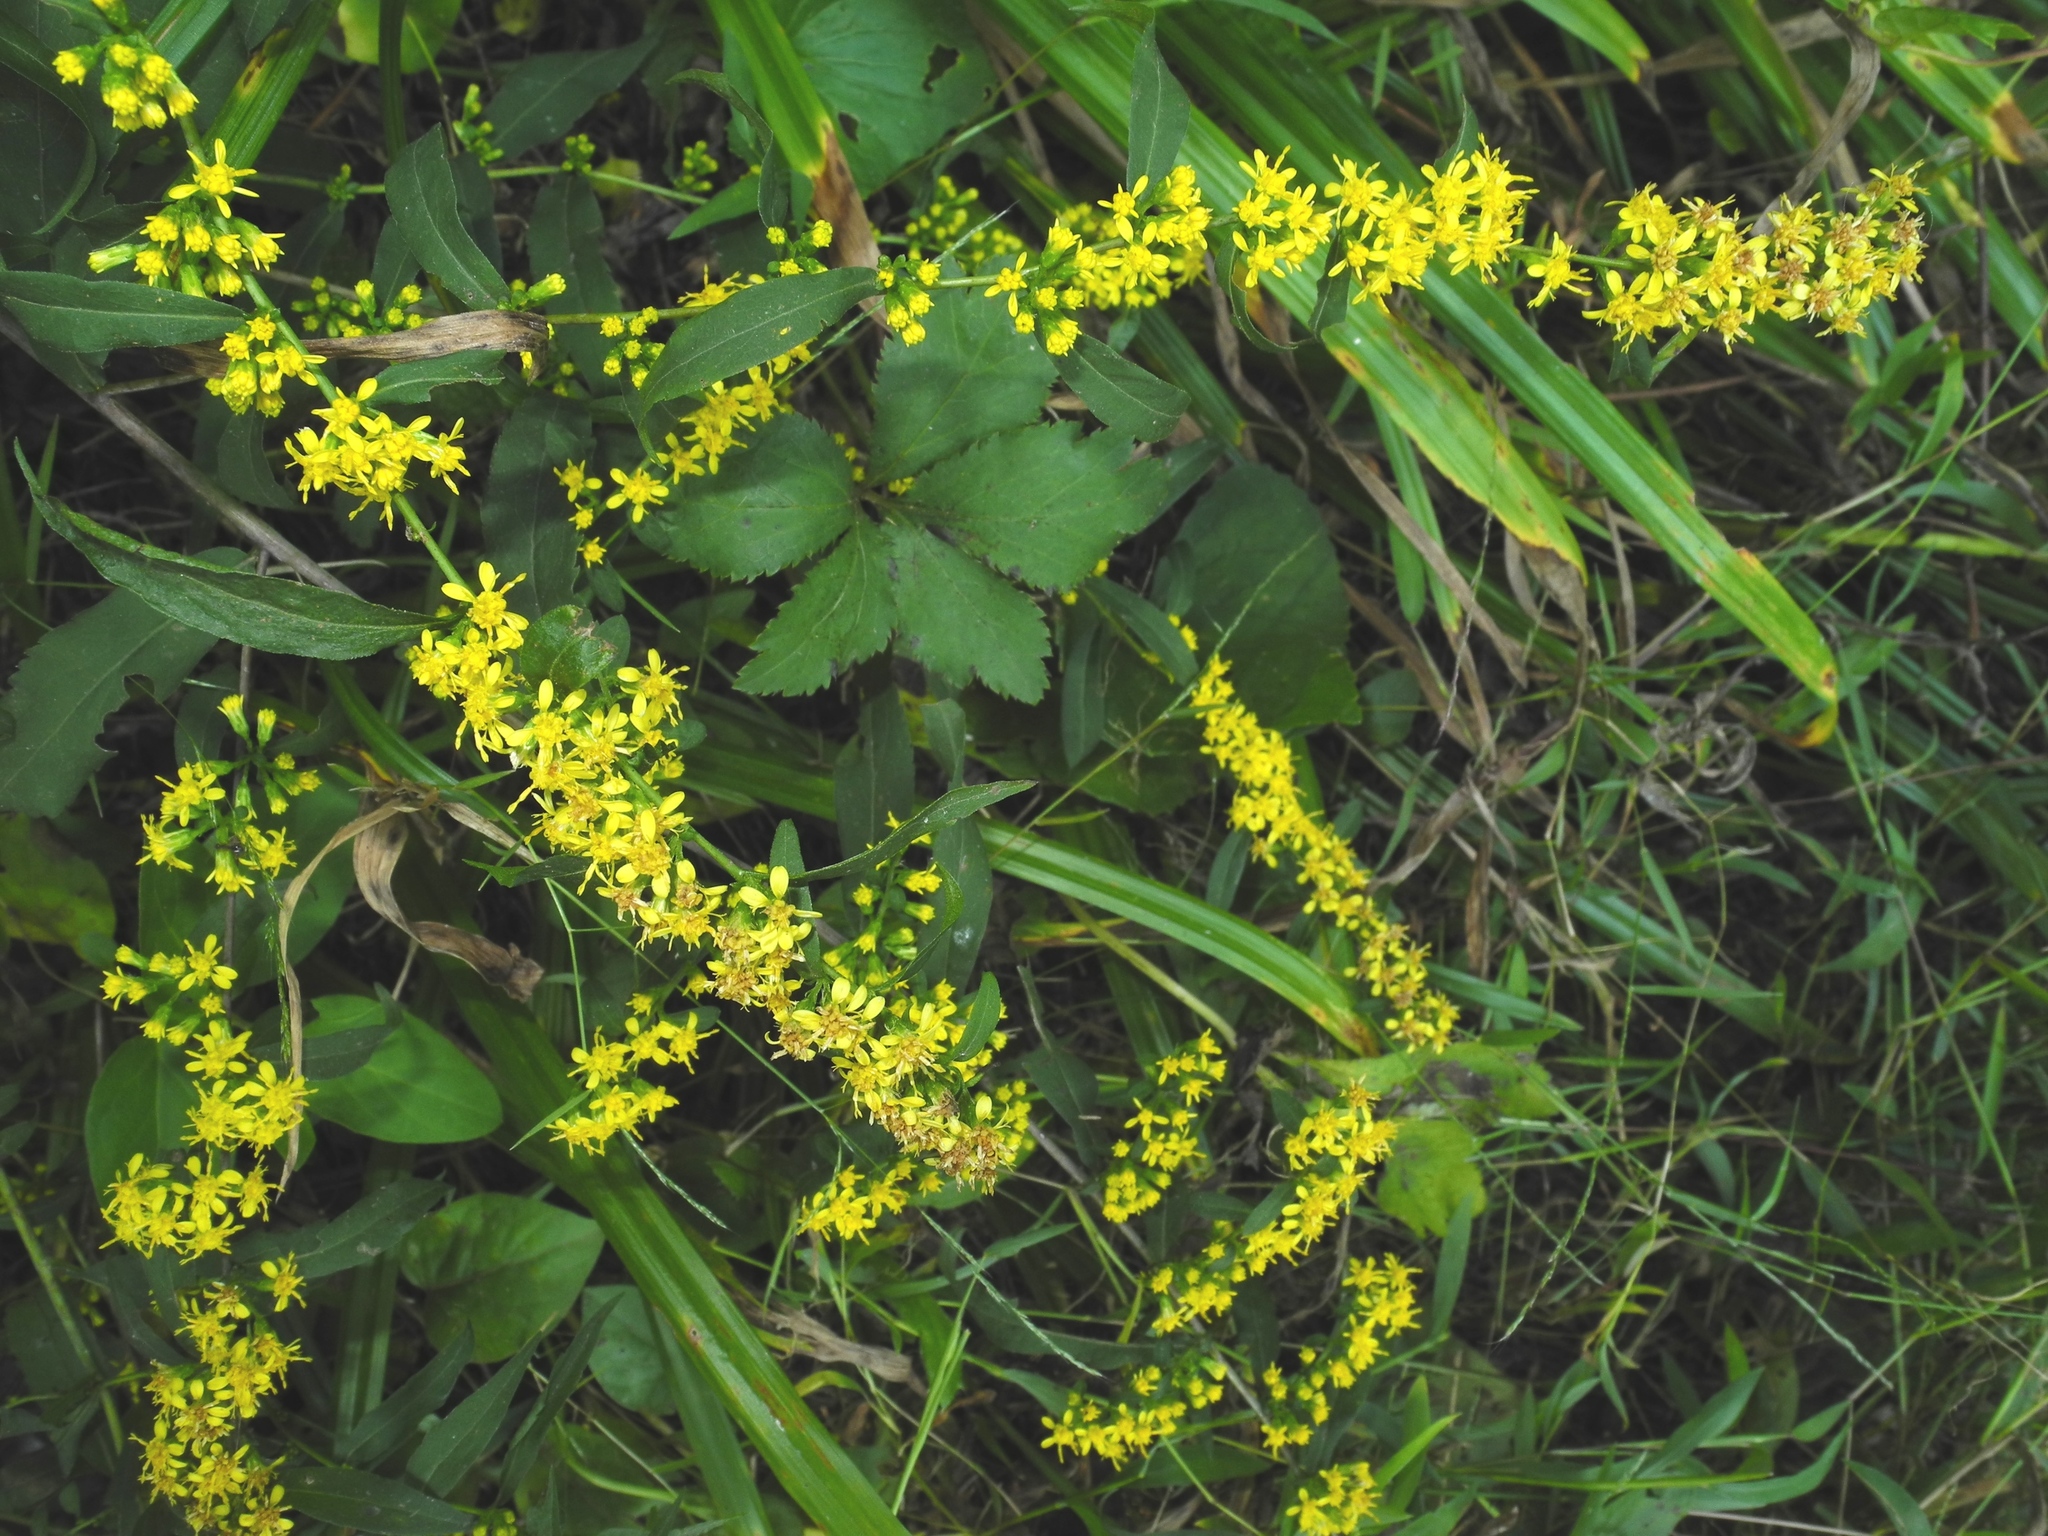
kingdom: Plantae
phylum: Tracheophyta
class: Magnoliopsida
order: Asterales
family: Asteraceae
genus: Solidago
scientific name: Solidago caesia
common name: Woodland goldenrod
